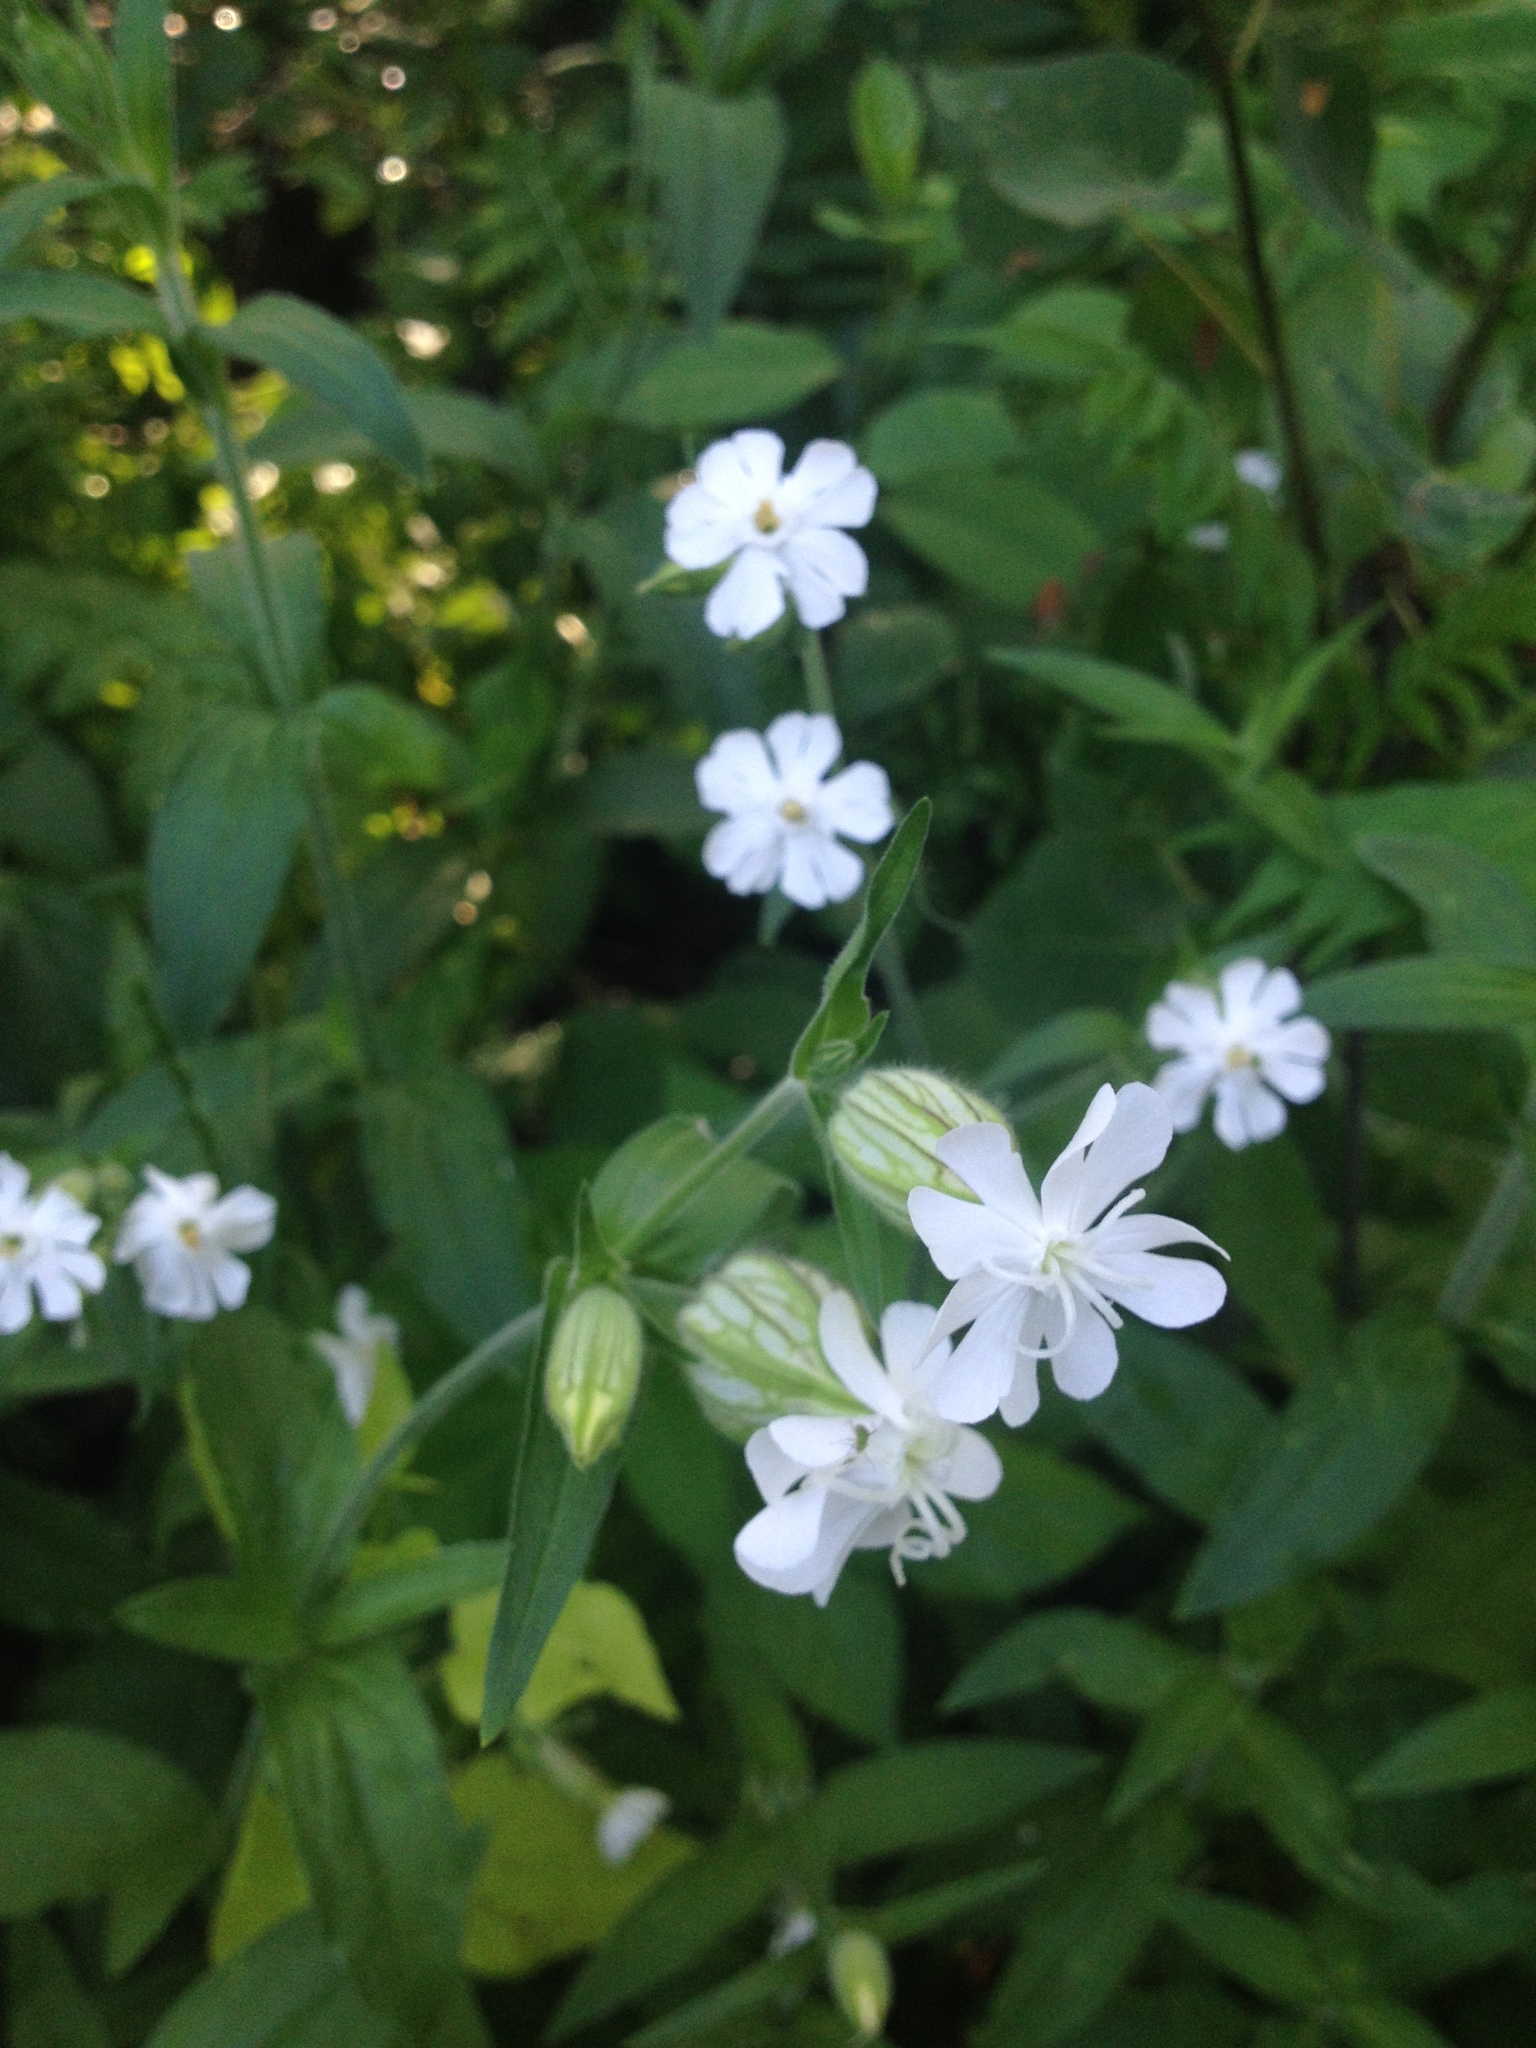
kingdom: Plantae
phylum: Tracheophyta
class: Magnoliopsida
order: Caryophyllales
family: Caryophyllaceae
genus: Silene
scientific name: Silene latifolia
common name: White campion
